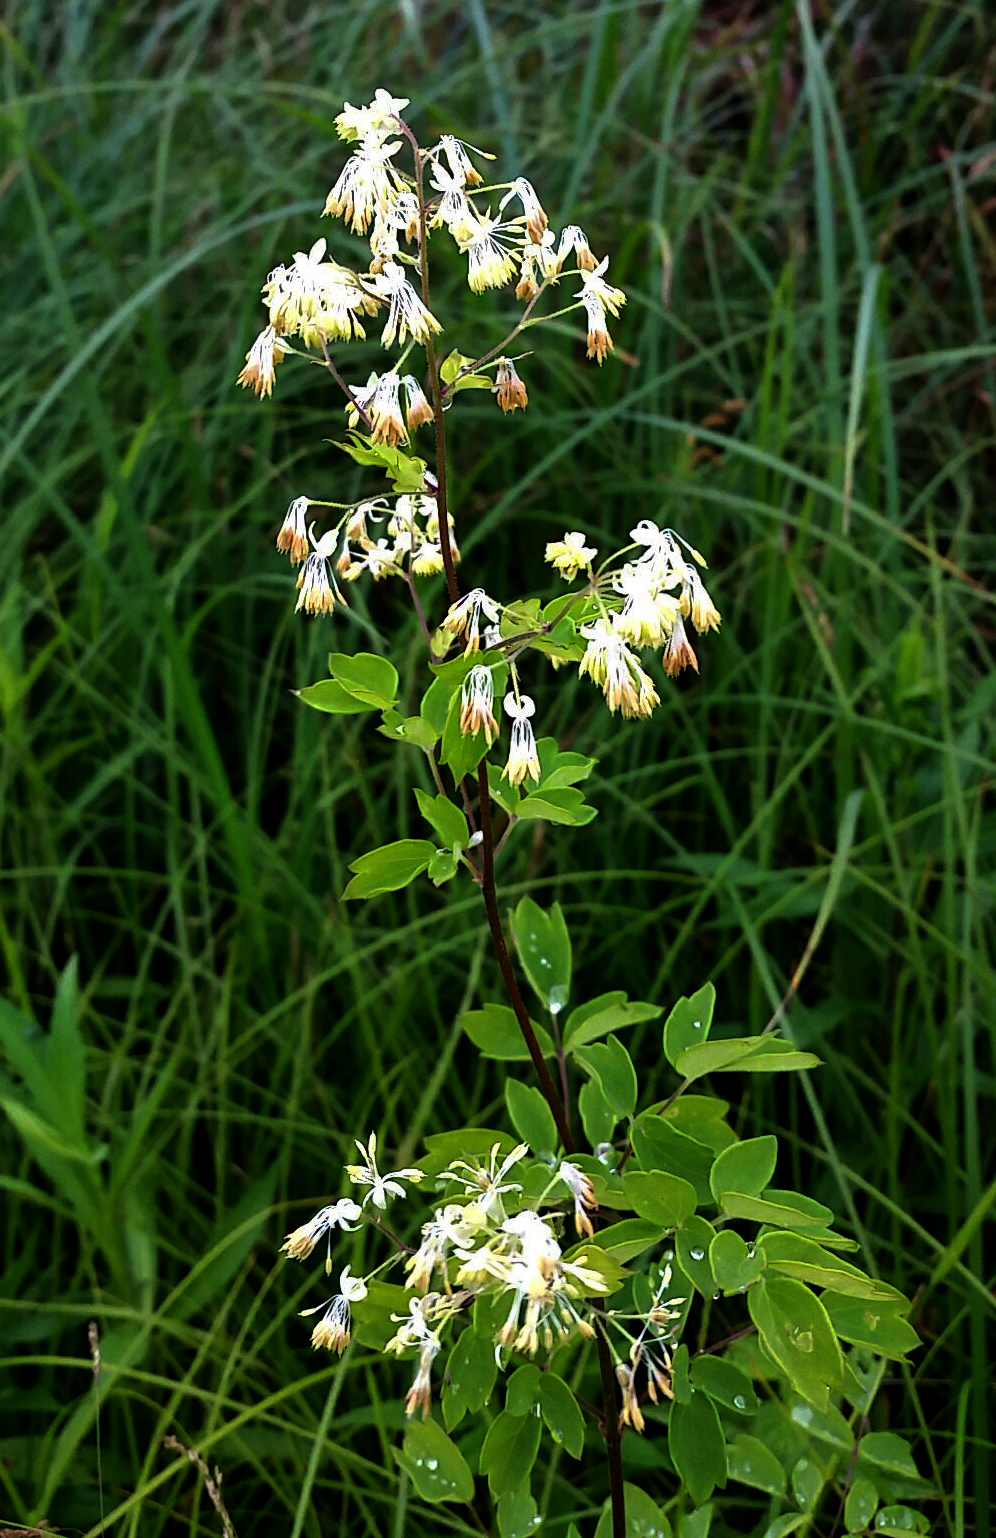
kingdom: Plantae
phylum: Tracheophyta
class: Magnoliopsida
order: Ranunculales
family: Ranunculaceae
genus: Thalictrum
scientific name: Thalictrum dasycarpum
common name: Purple meadow-rue
